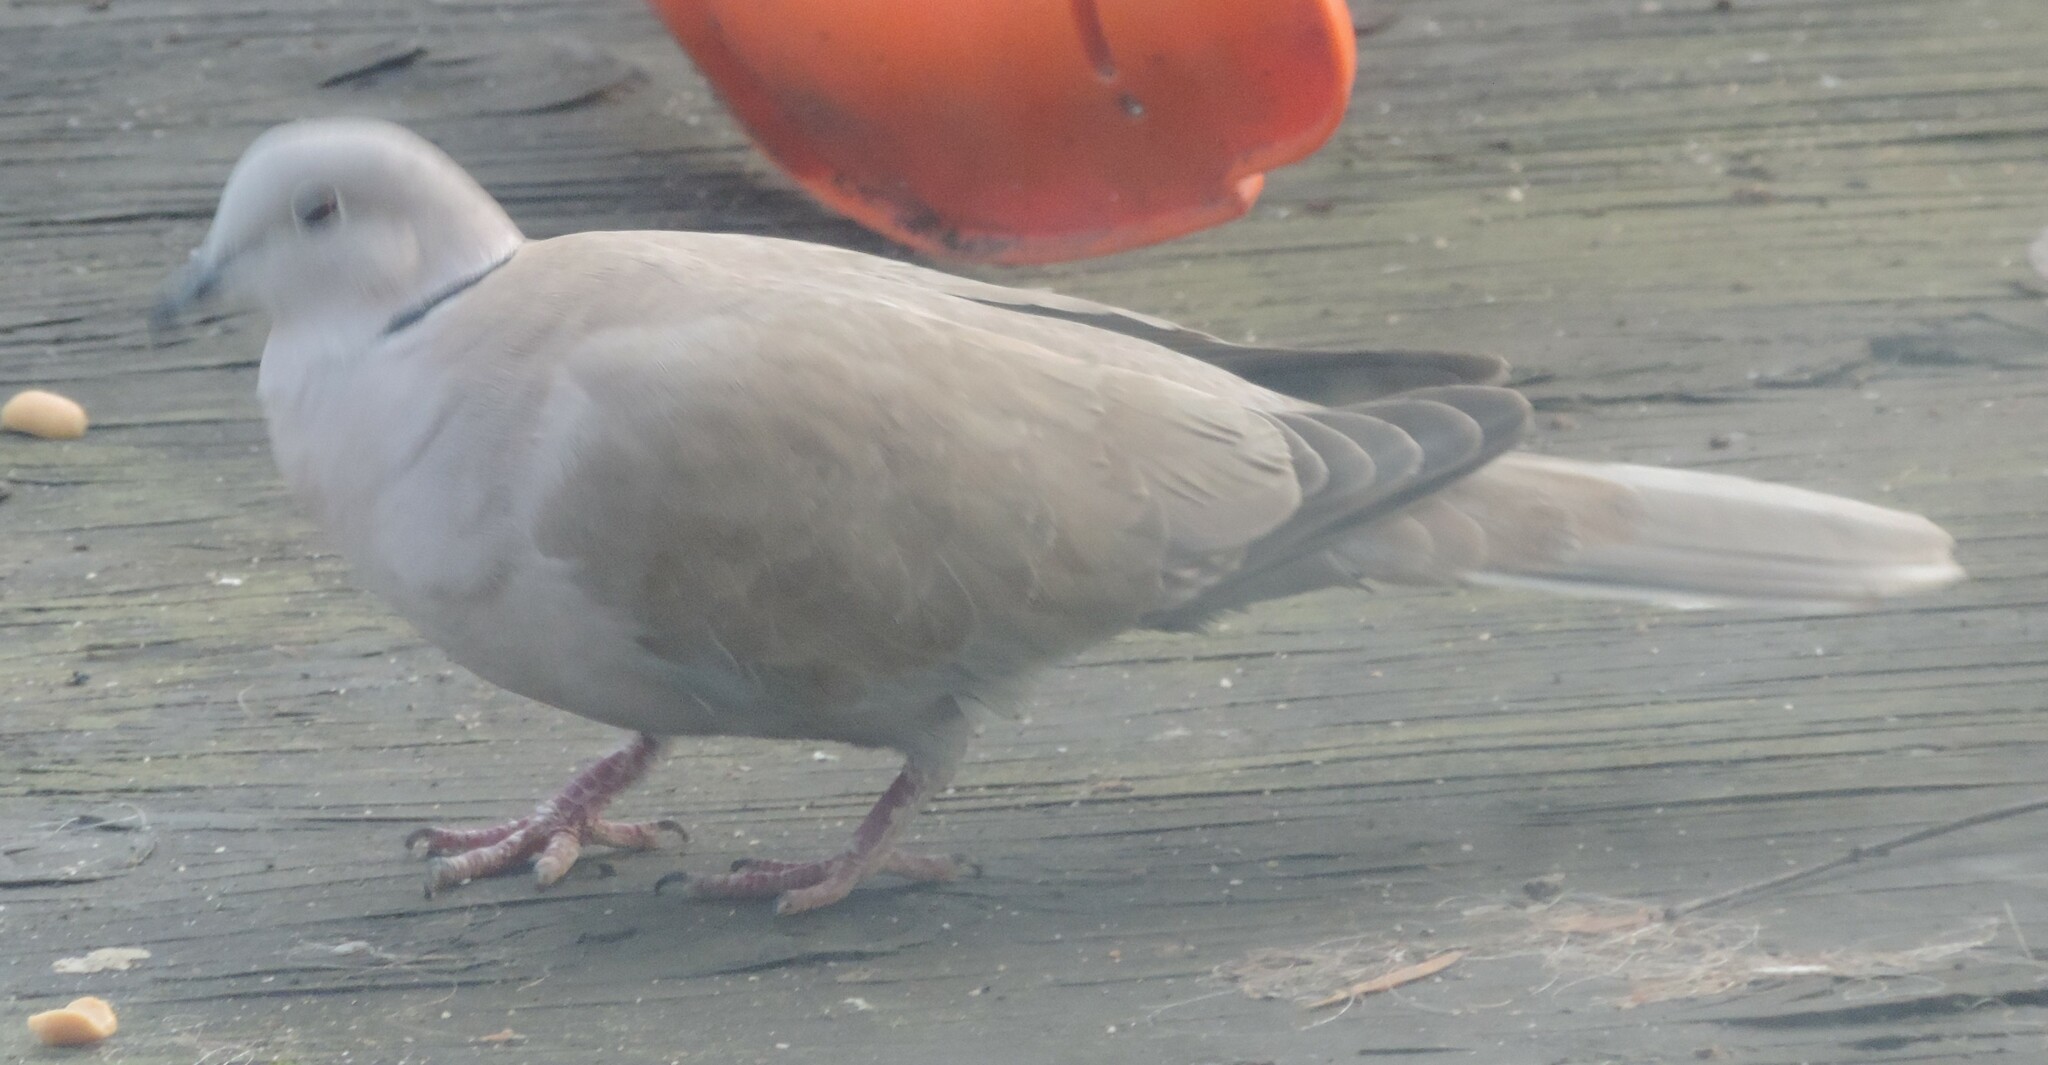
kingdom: Animalia
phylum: Chordata
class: Aves
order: Columbiformes
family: Columbidae
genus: Streptopelia
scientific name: Streptopelia decaocto
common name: Eurasian collared dove
